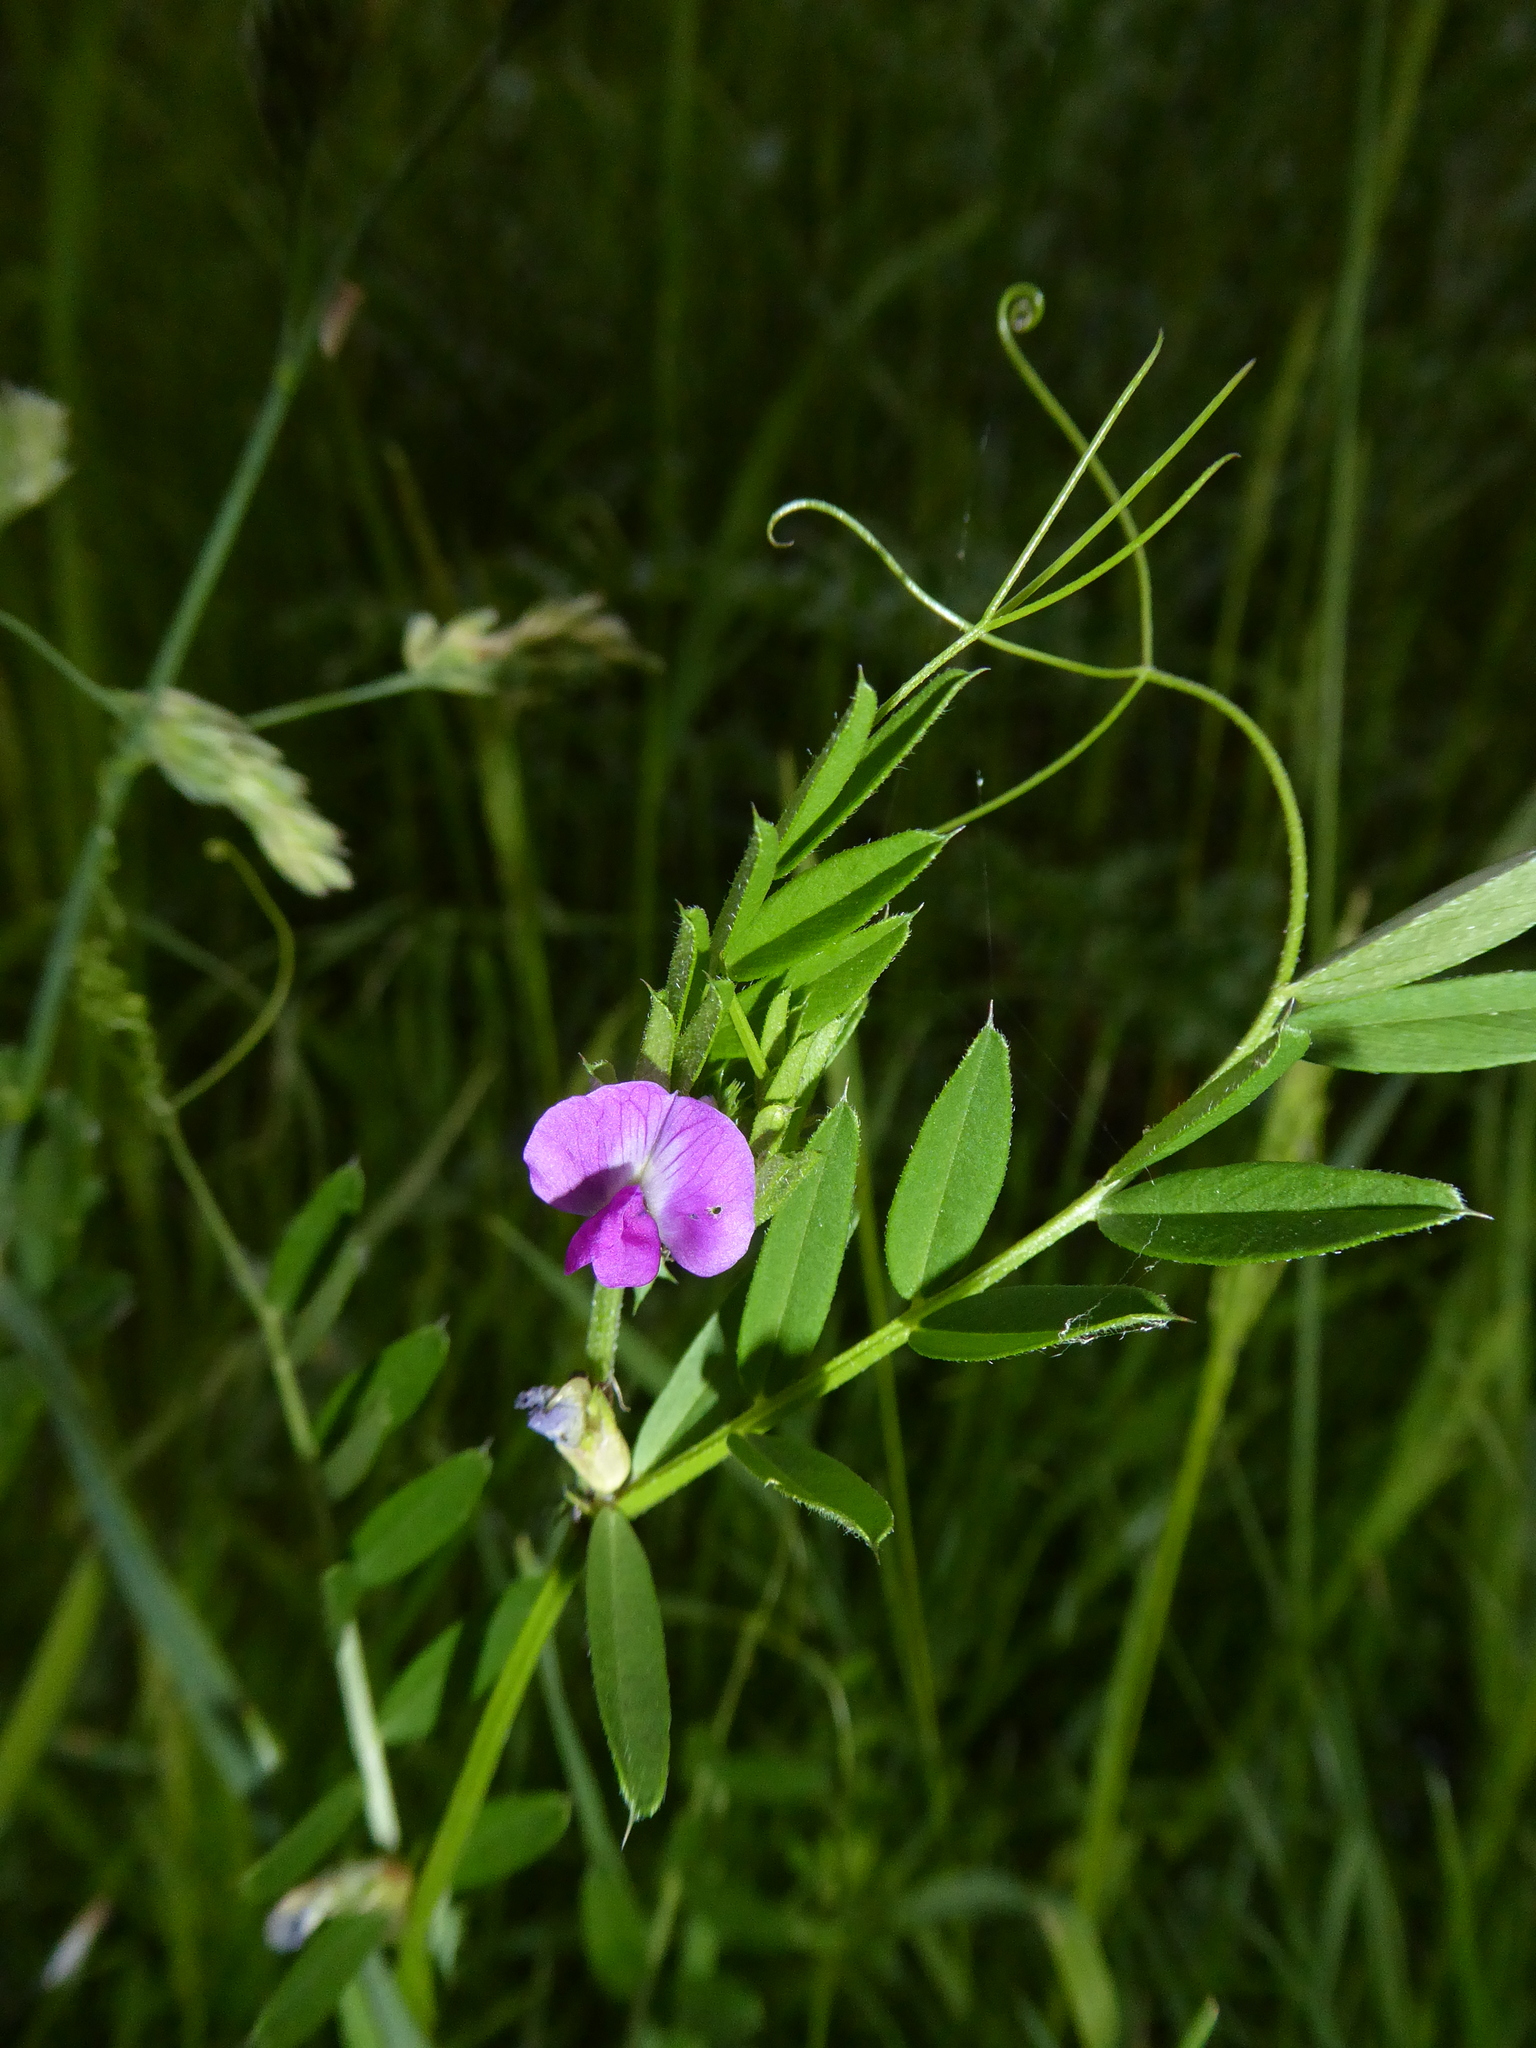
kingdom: Plantae
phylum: Tracheophyta
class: Magnoliopsida
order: Fabales
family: Fabaceae
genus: Vicia
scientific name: Vicia sativa
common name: Garden vetch
